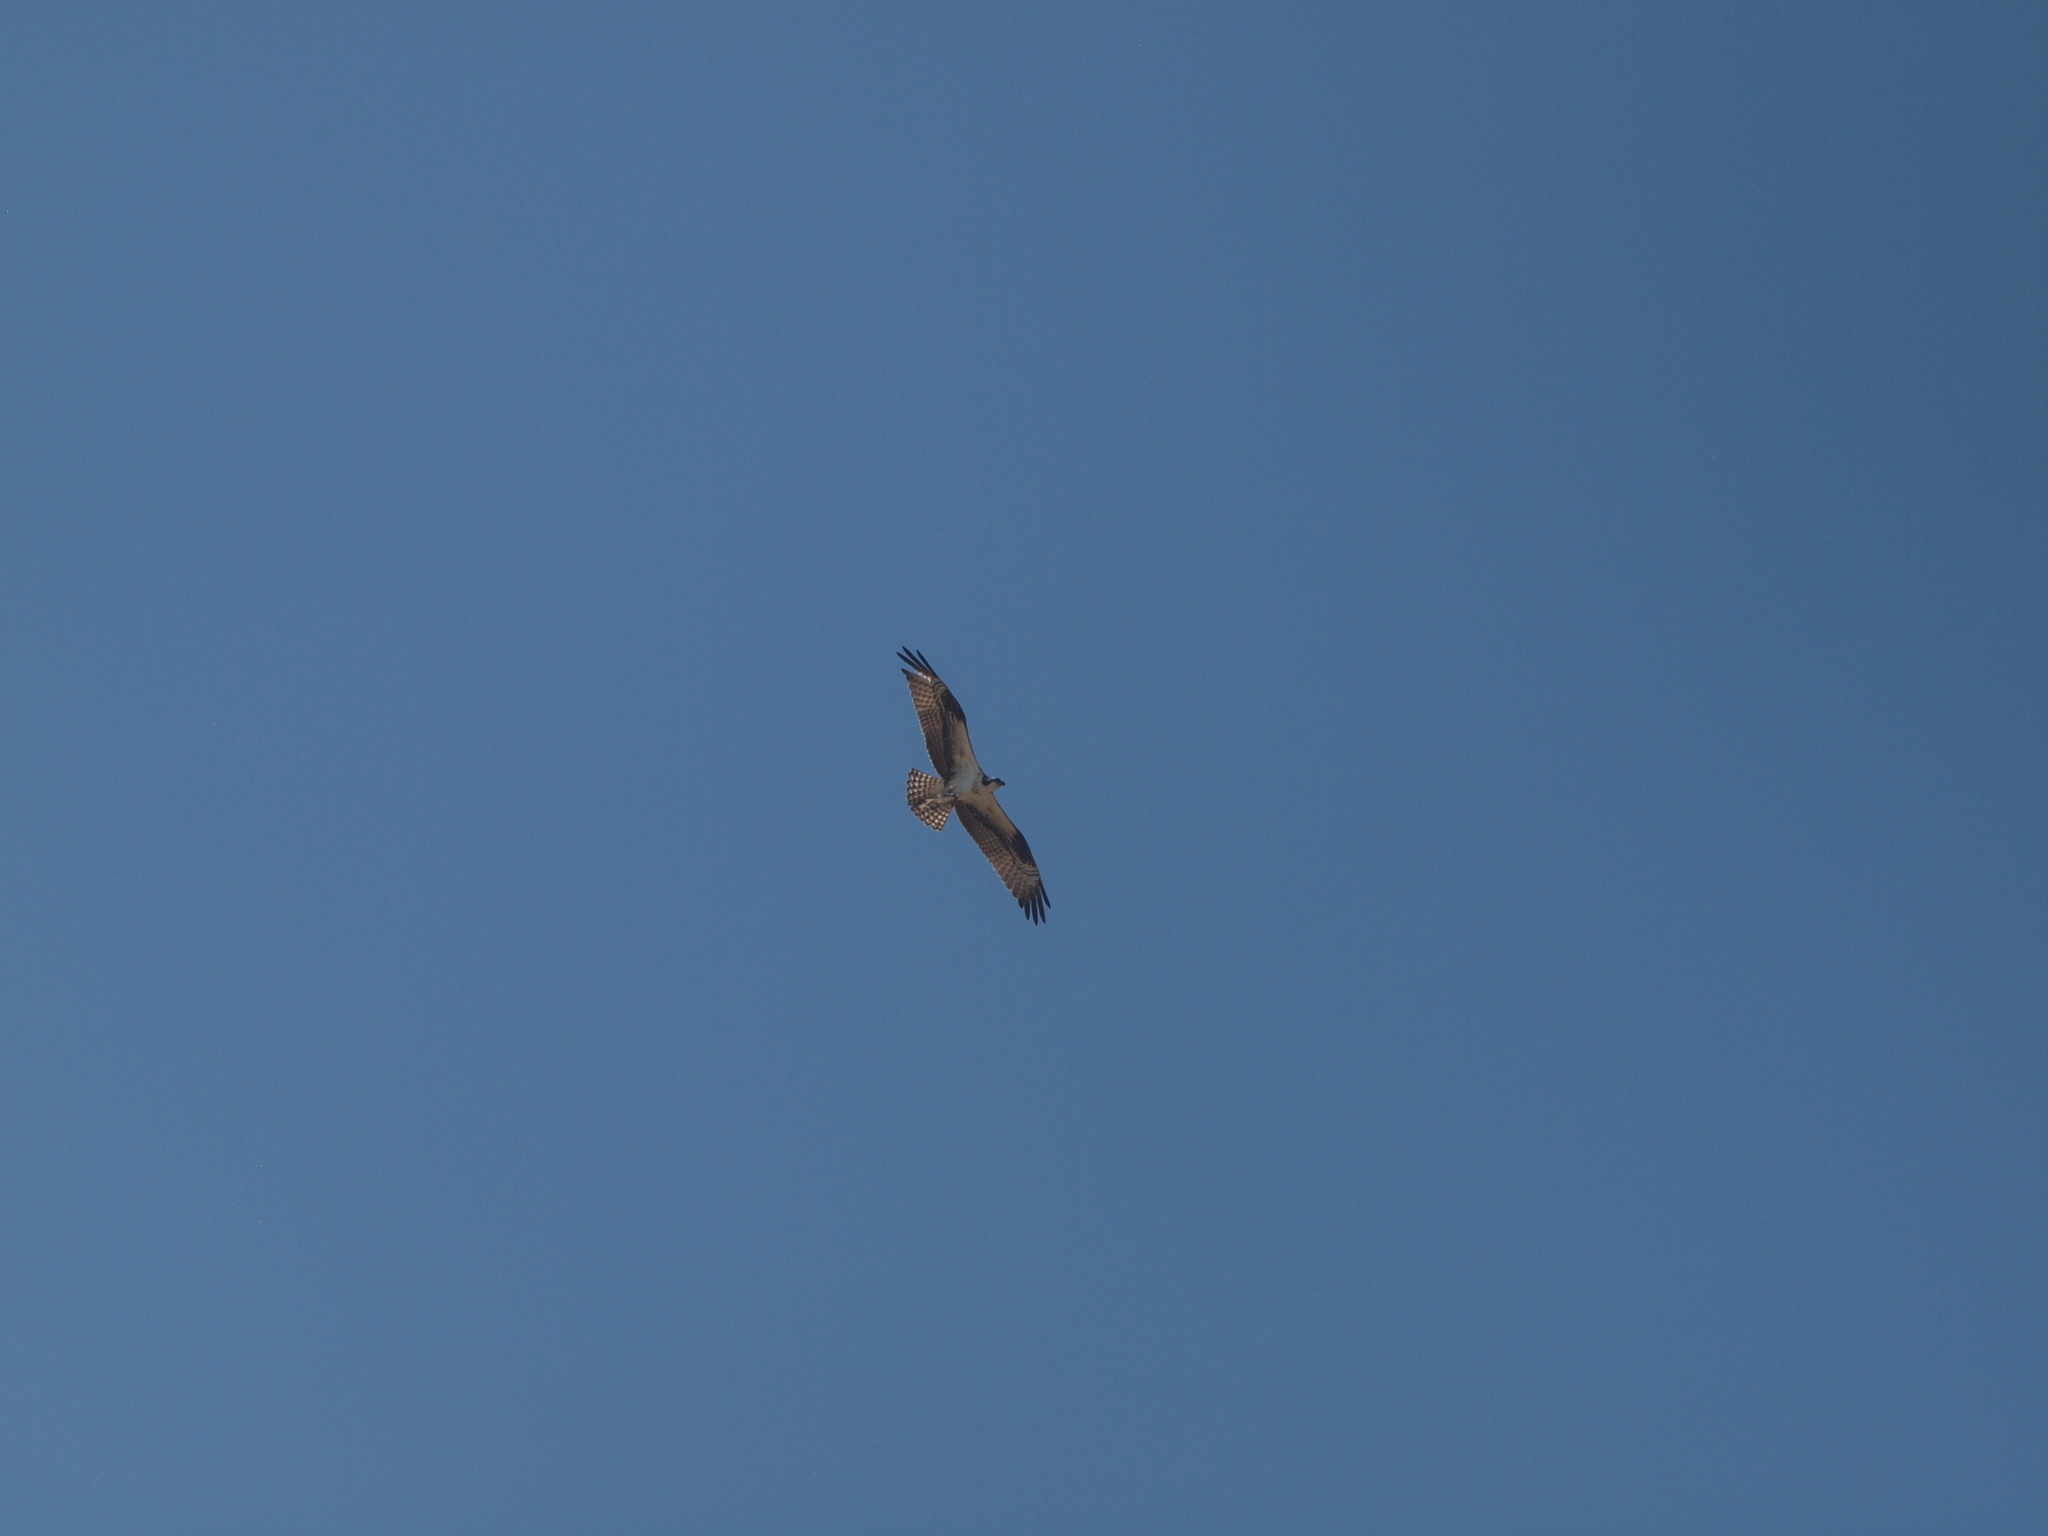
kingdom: Animalia
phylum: Chordata
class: Aves
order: Accipitriformes
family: Pandionidae
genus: Pandion
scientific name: Pandion haliaetus
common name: Osprey
